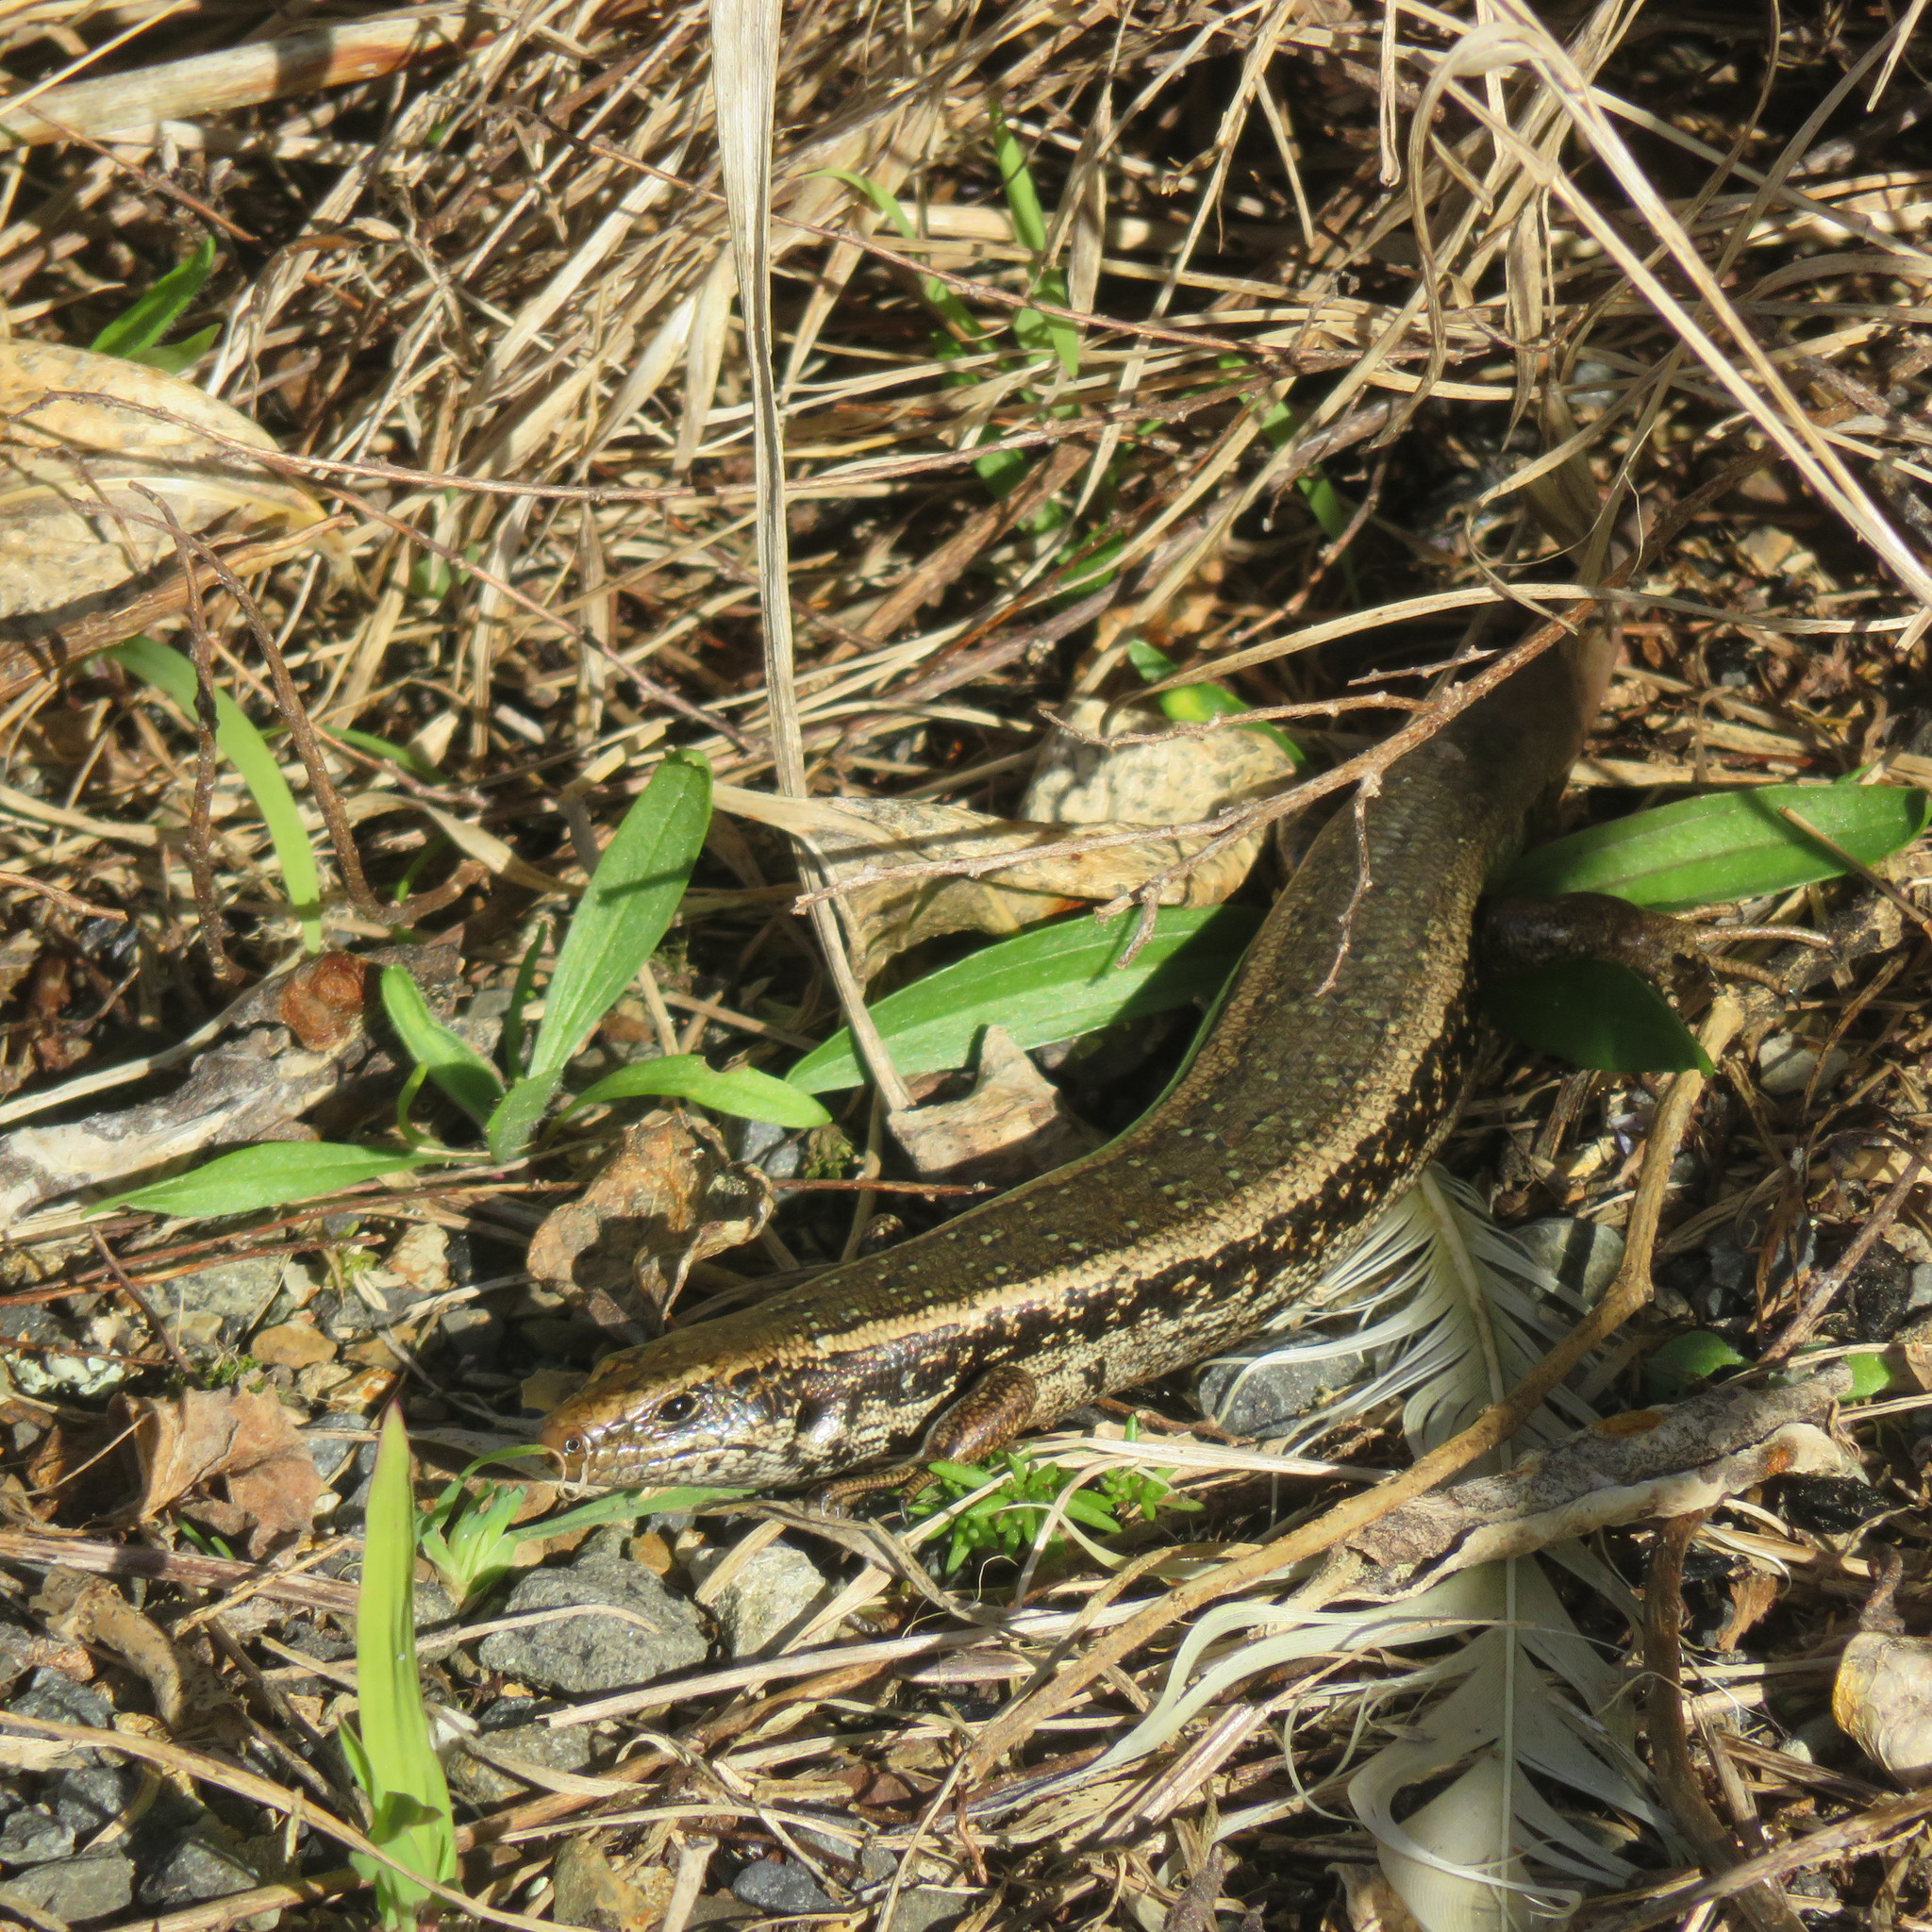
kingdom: Animalia
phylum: Chordata
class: Squamata
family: Scincidae
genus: Oligosoma
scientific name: Oligosoma kokowai
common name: Northern spotted skink
